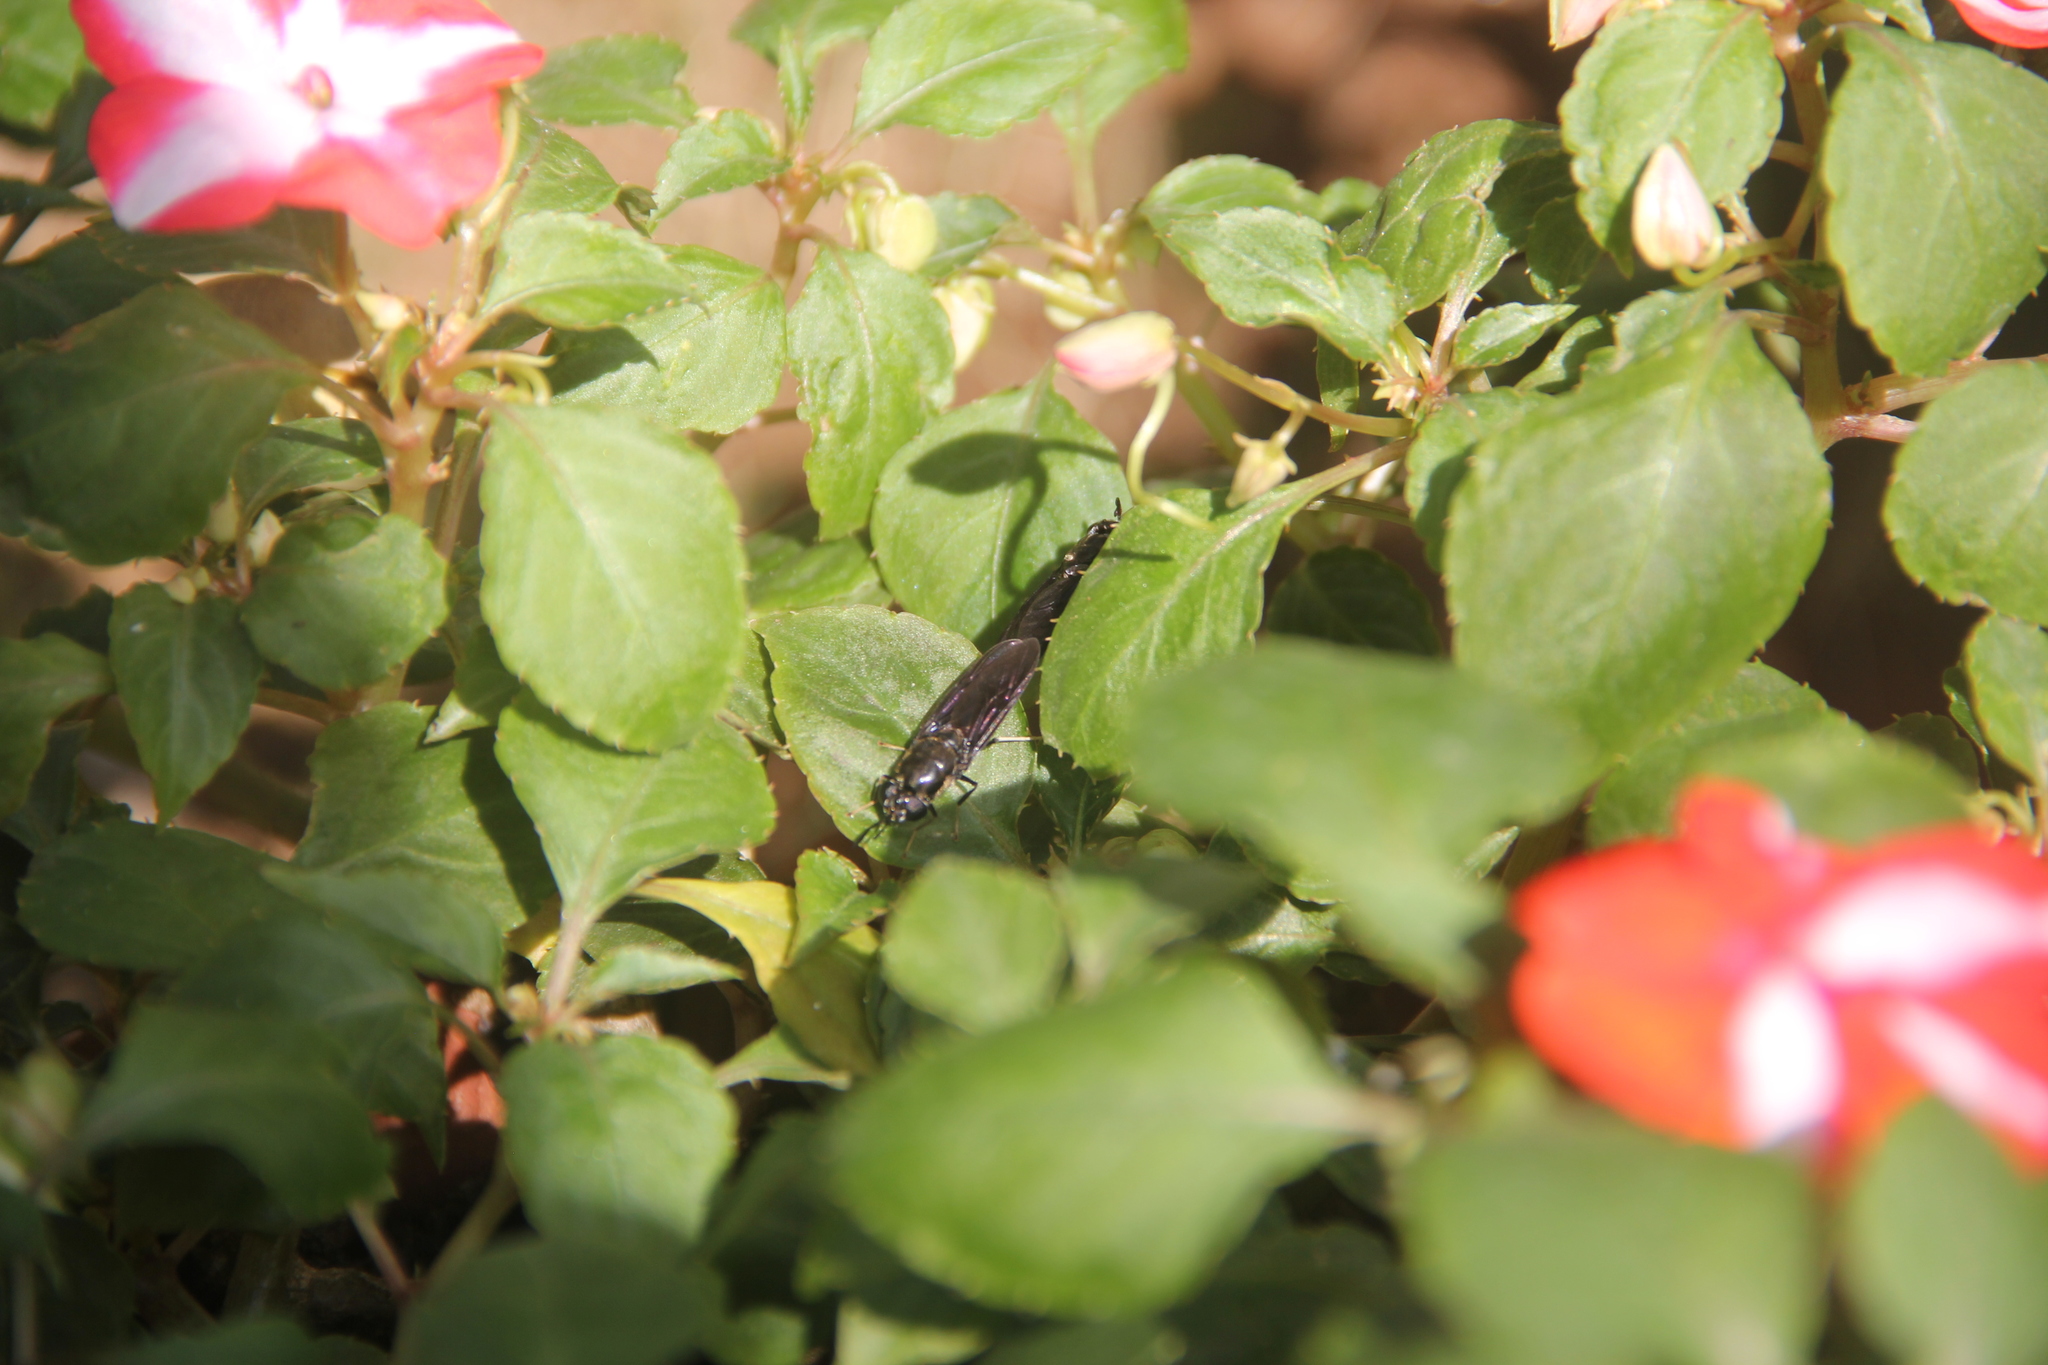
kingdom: Animalia
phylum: Arthropoda
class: Insecta
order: Diptera
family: Stratiomyidae
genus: Hermetia
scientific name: Hermetia illucens
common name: Black soldier fly
